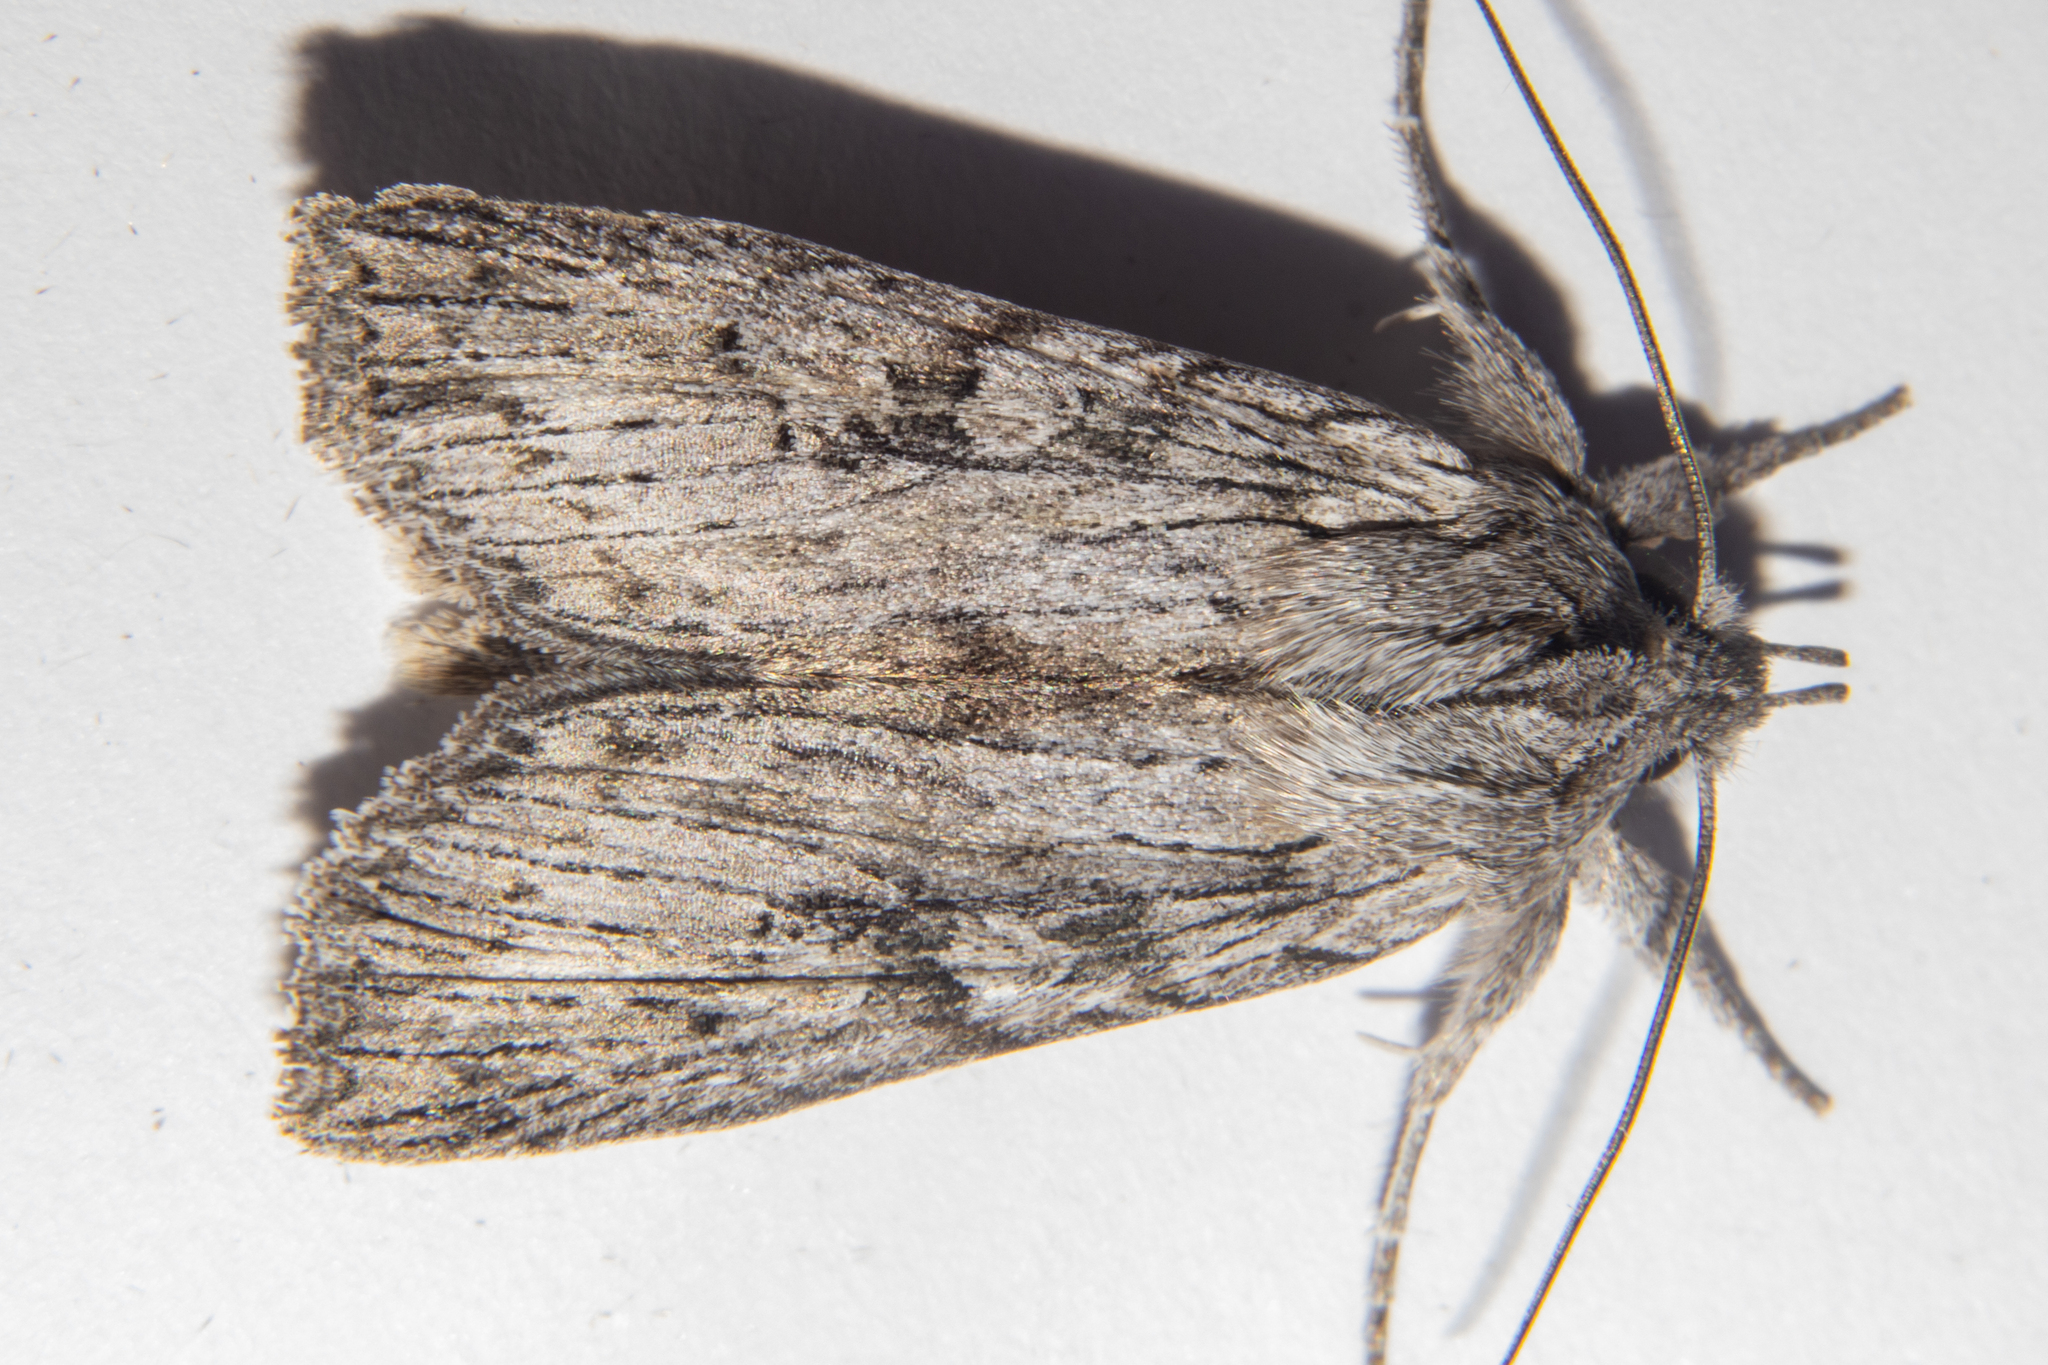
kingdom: Animalia
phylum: Arthropoda
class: Insecta
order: Lepidoptera
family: Noctuidae
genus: Physetica
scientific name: Physetica phricias
